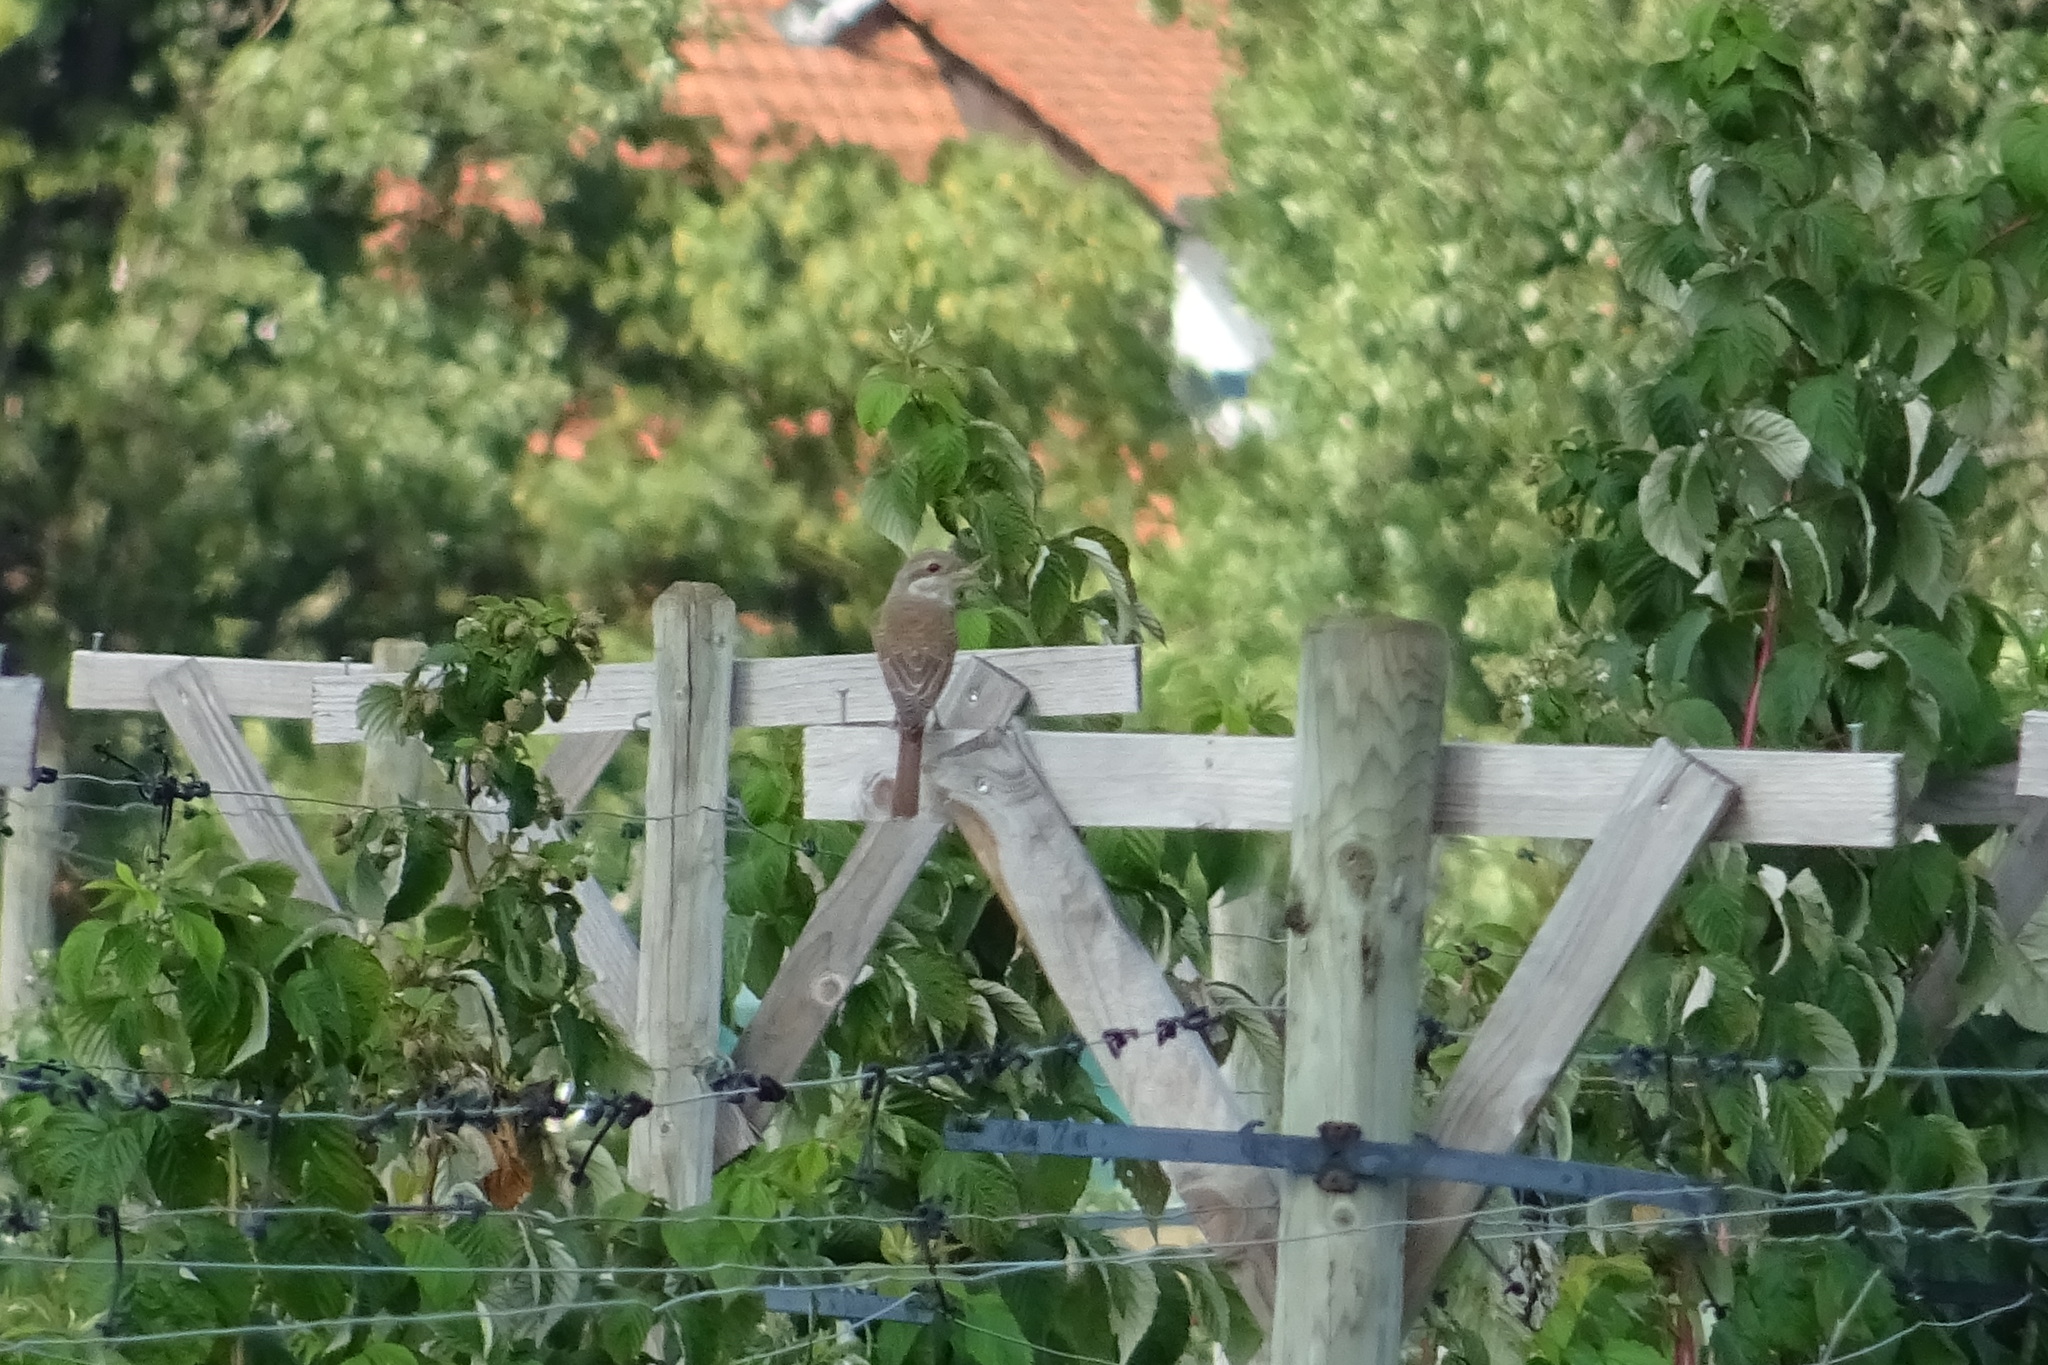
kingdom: Animalia
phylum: Chordata
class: Aves
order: Passeriformes
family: Laniidae
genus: Lanius
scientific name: Lanius collurio
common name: Red-backed shrike
